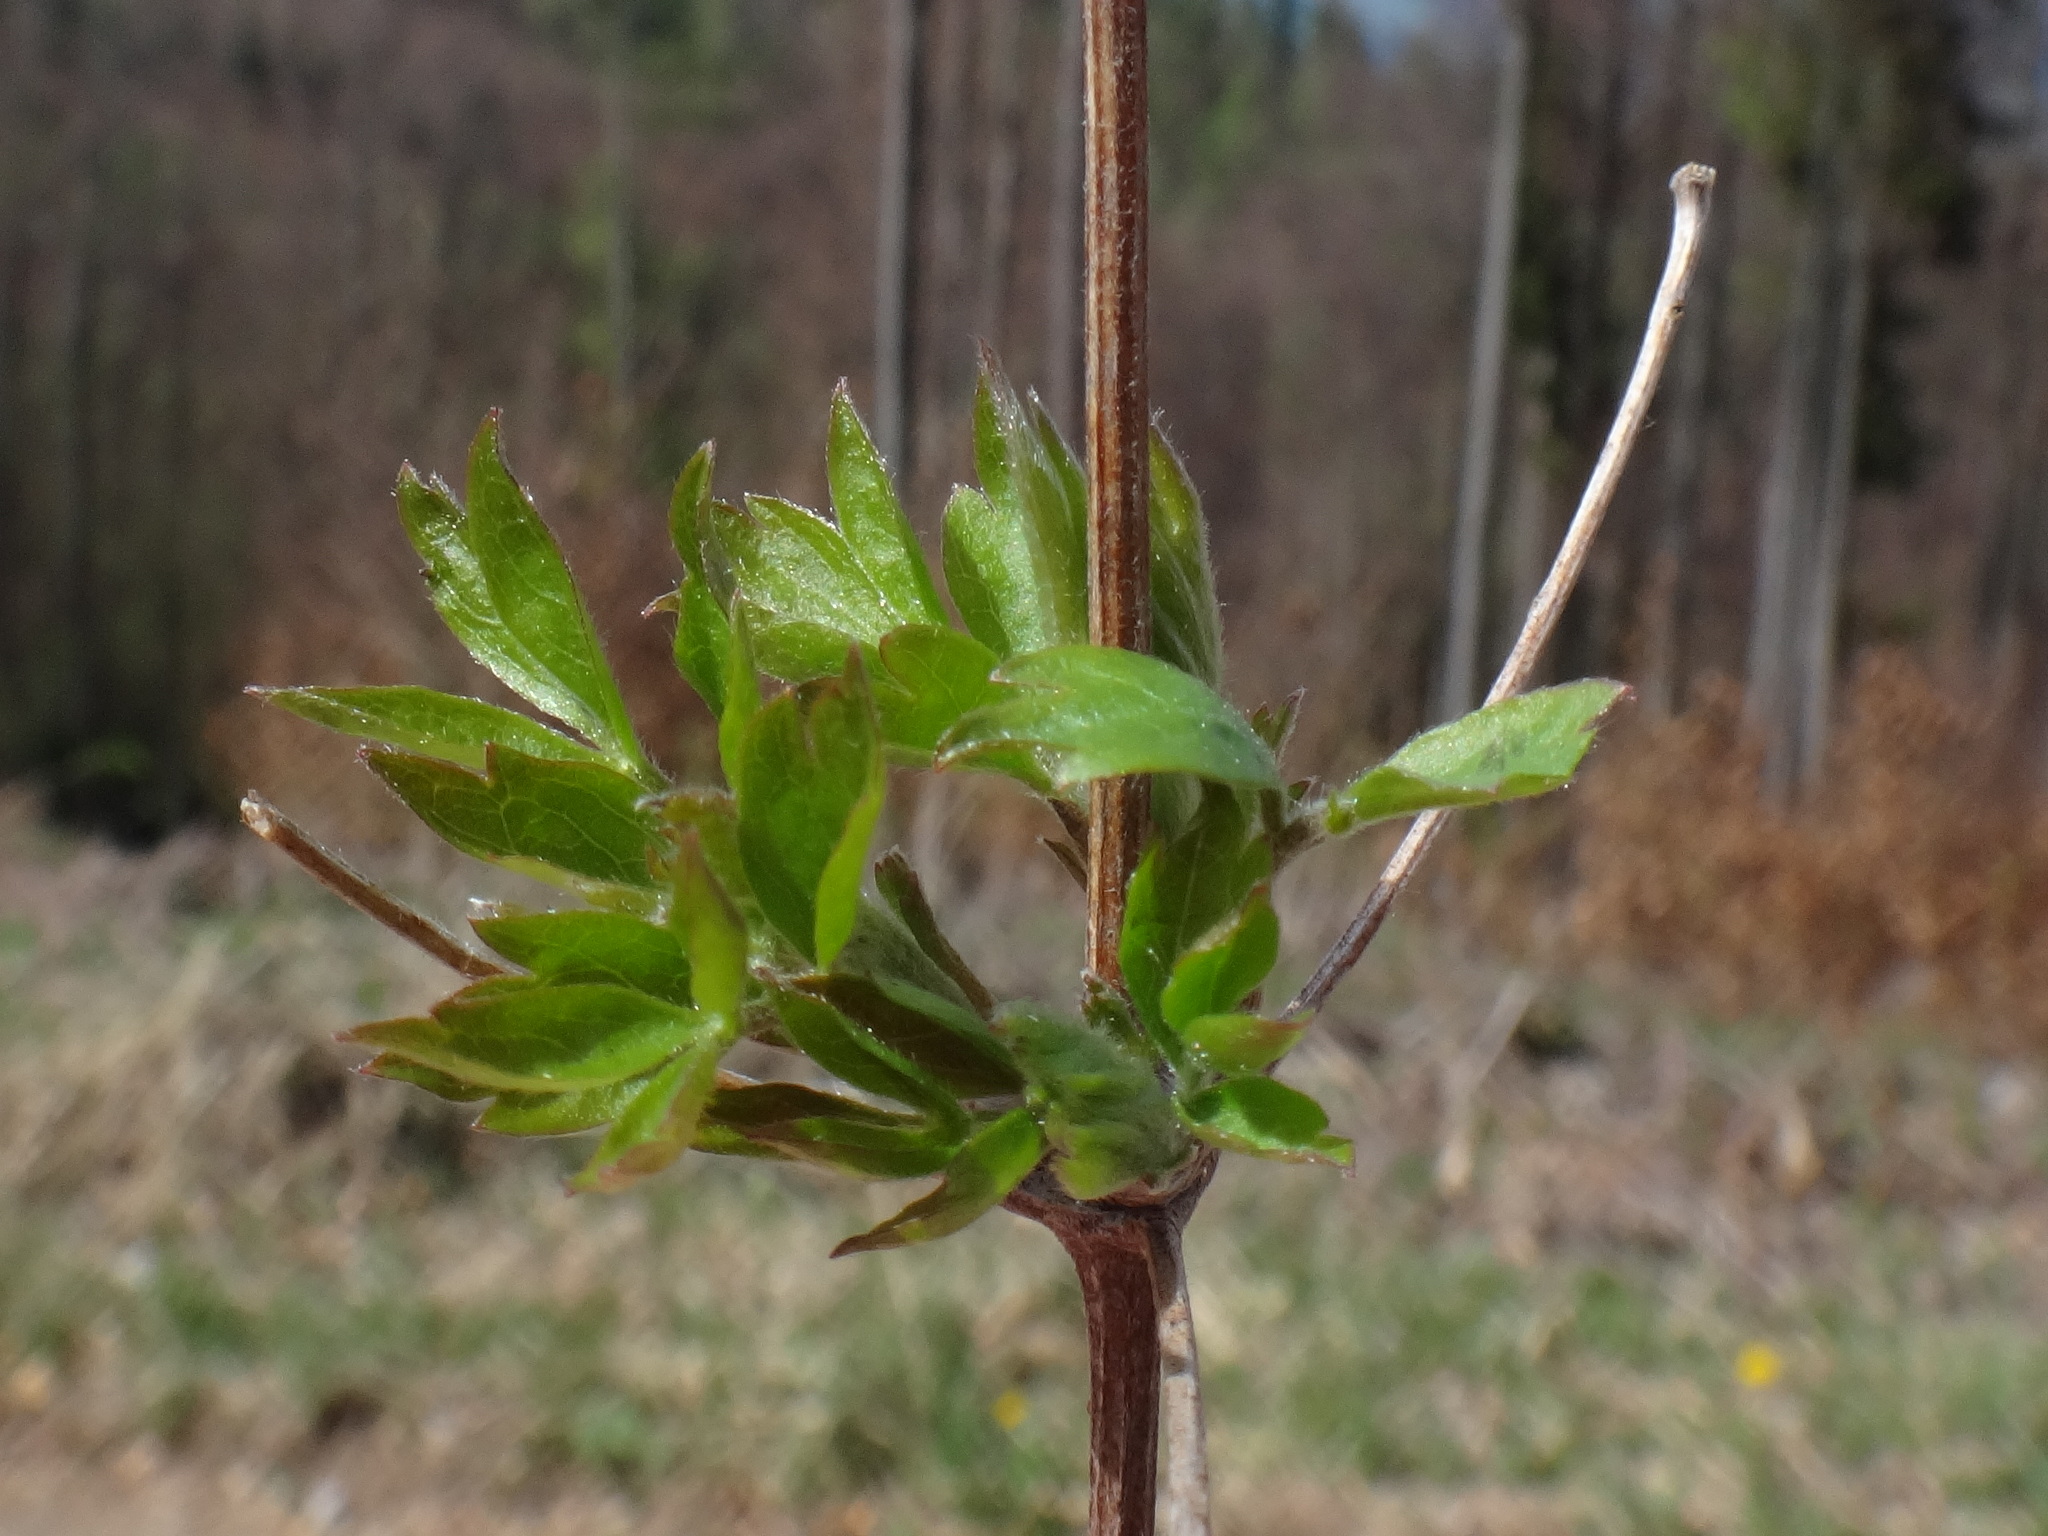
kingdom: Plantae
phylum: Tracheophyta
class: Magnoliopsida
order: Ranunculales
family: Ranunculaceae
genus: Clematis
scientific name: Clematis vitalba
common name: Evergreen clematis
